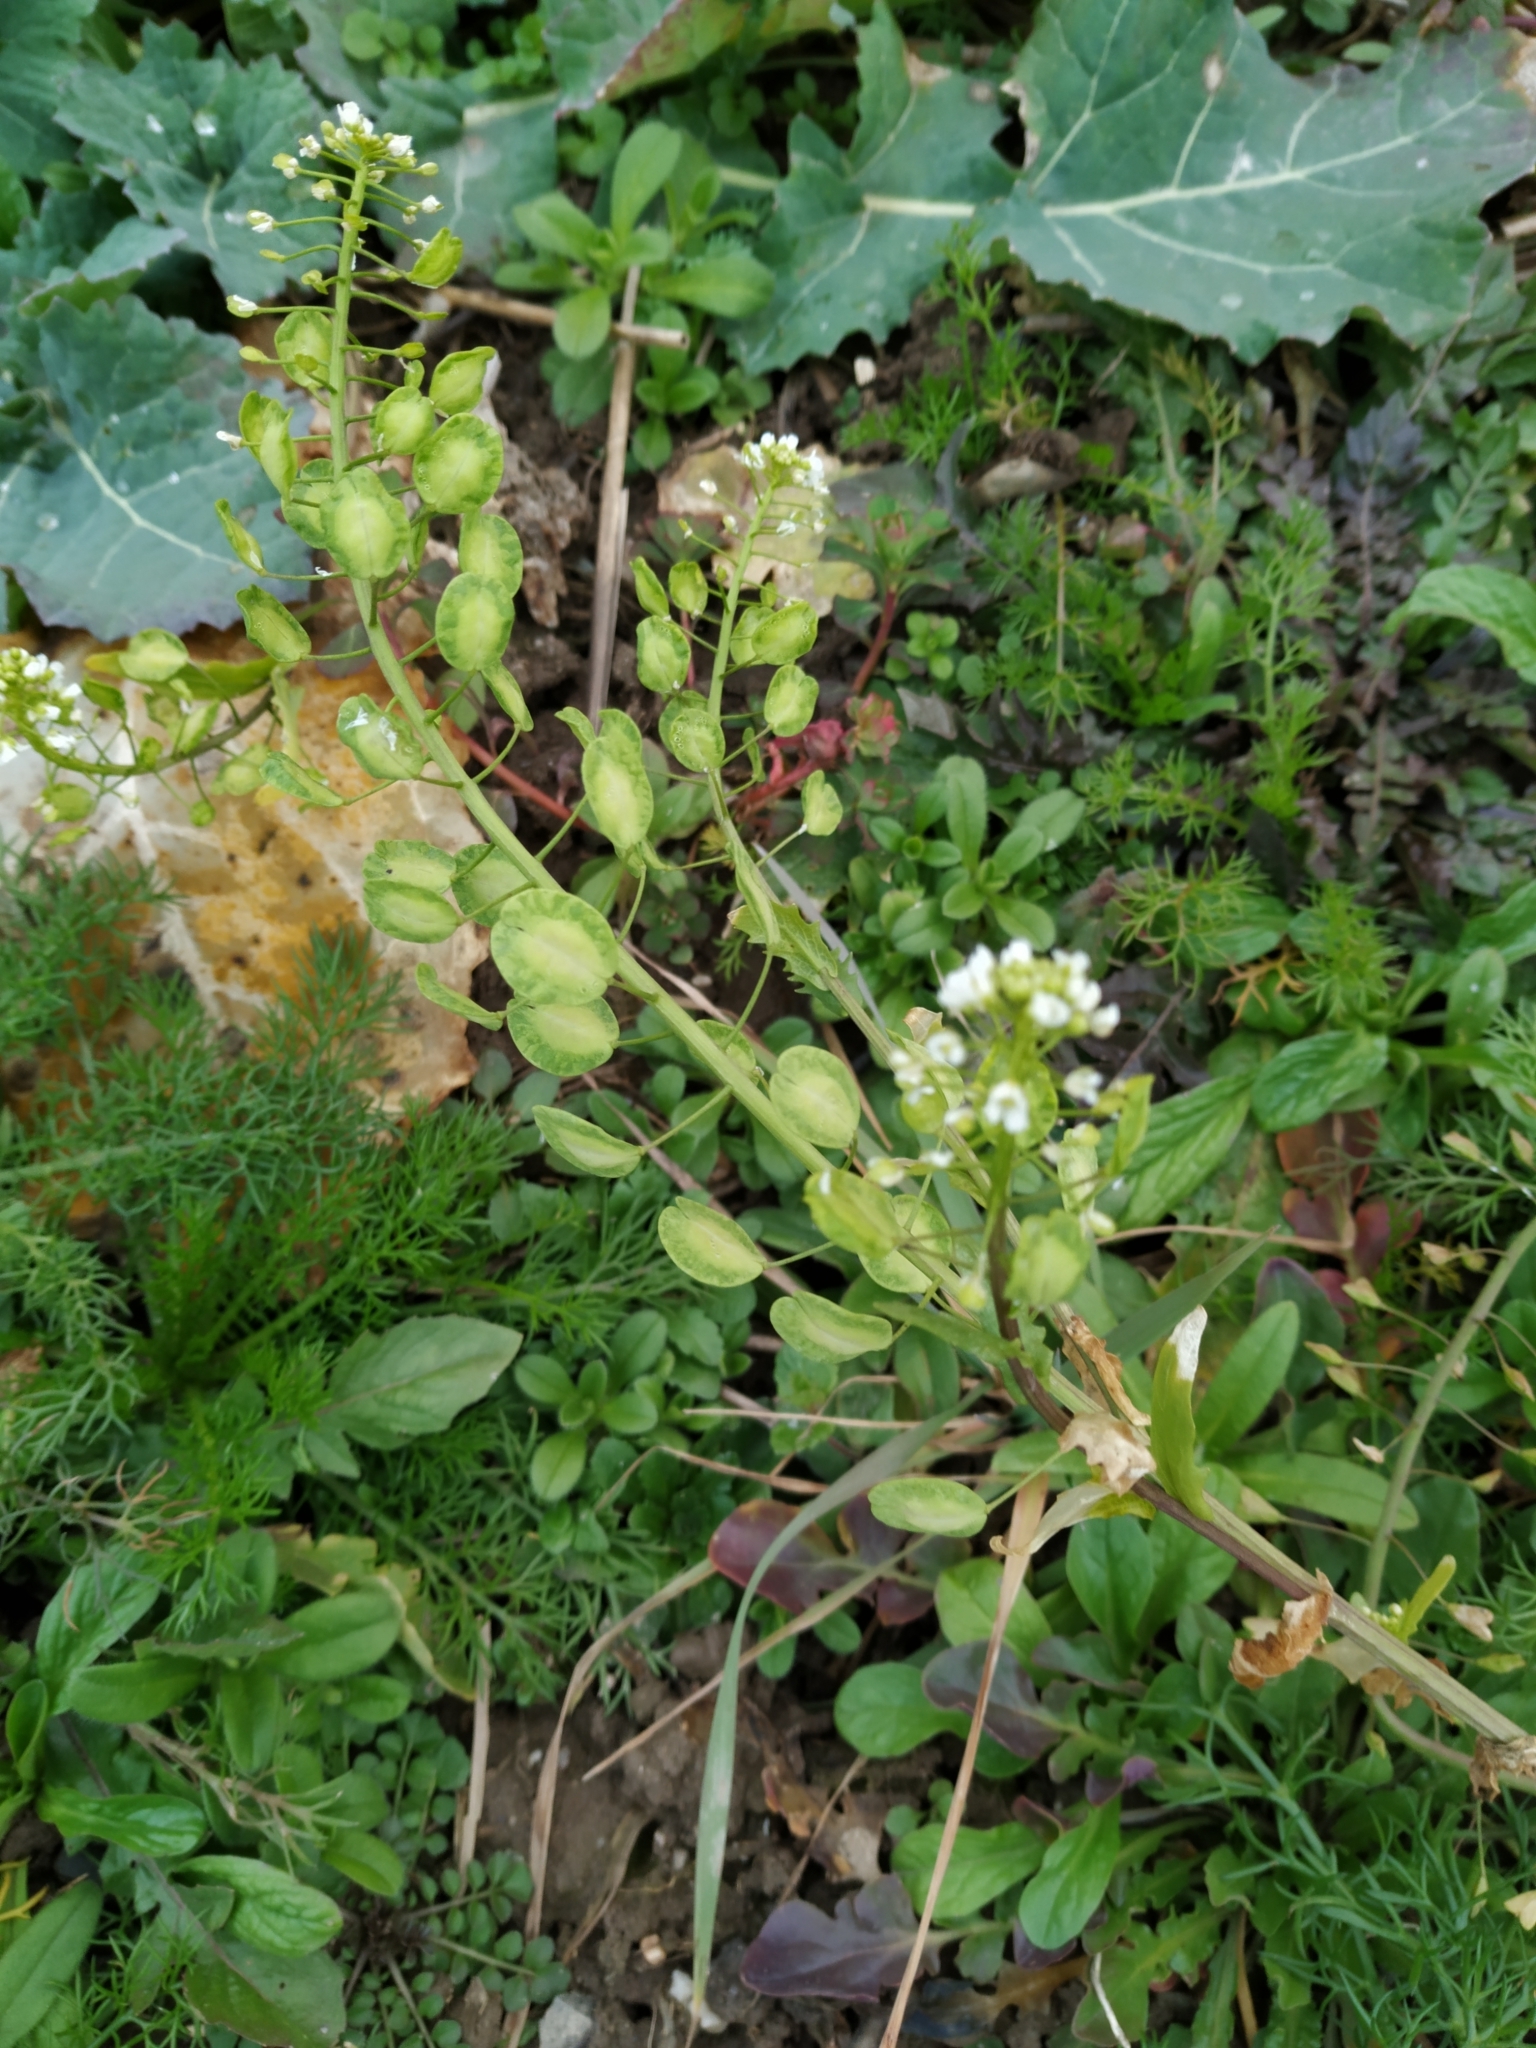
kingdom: Plantae
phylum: Tracheophyta
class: Magnoliopsida
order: Brassicales
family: Brassicaceae
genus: Thlaspi
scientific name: Thlaspi arvense
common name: Field pennycress
